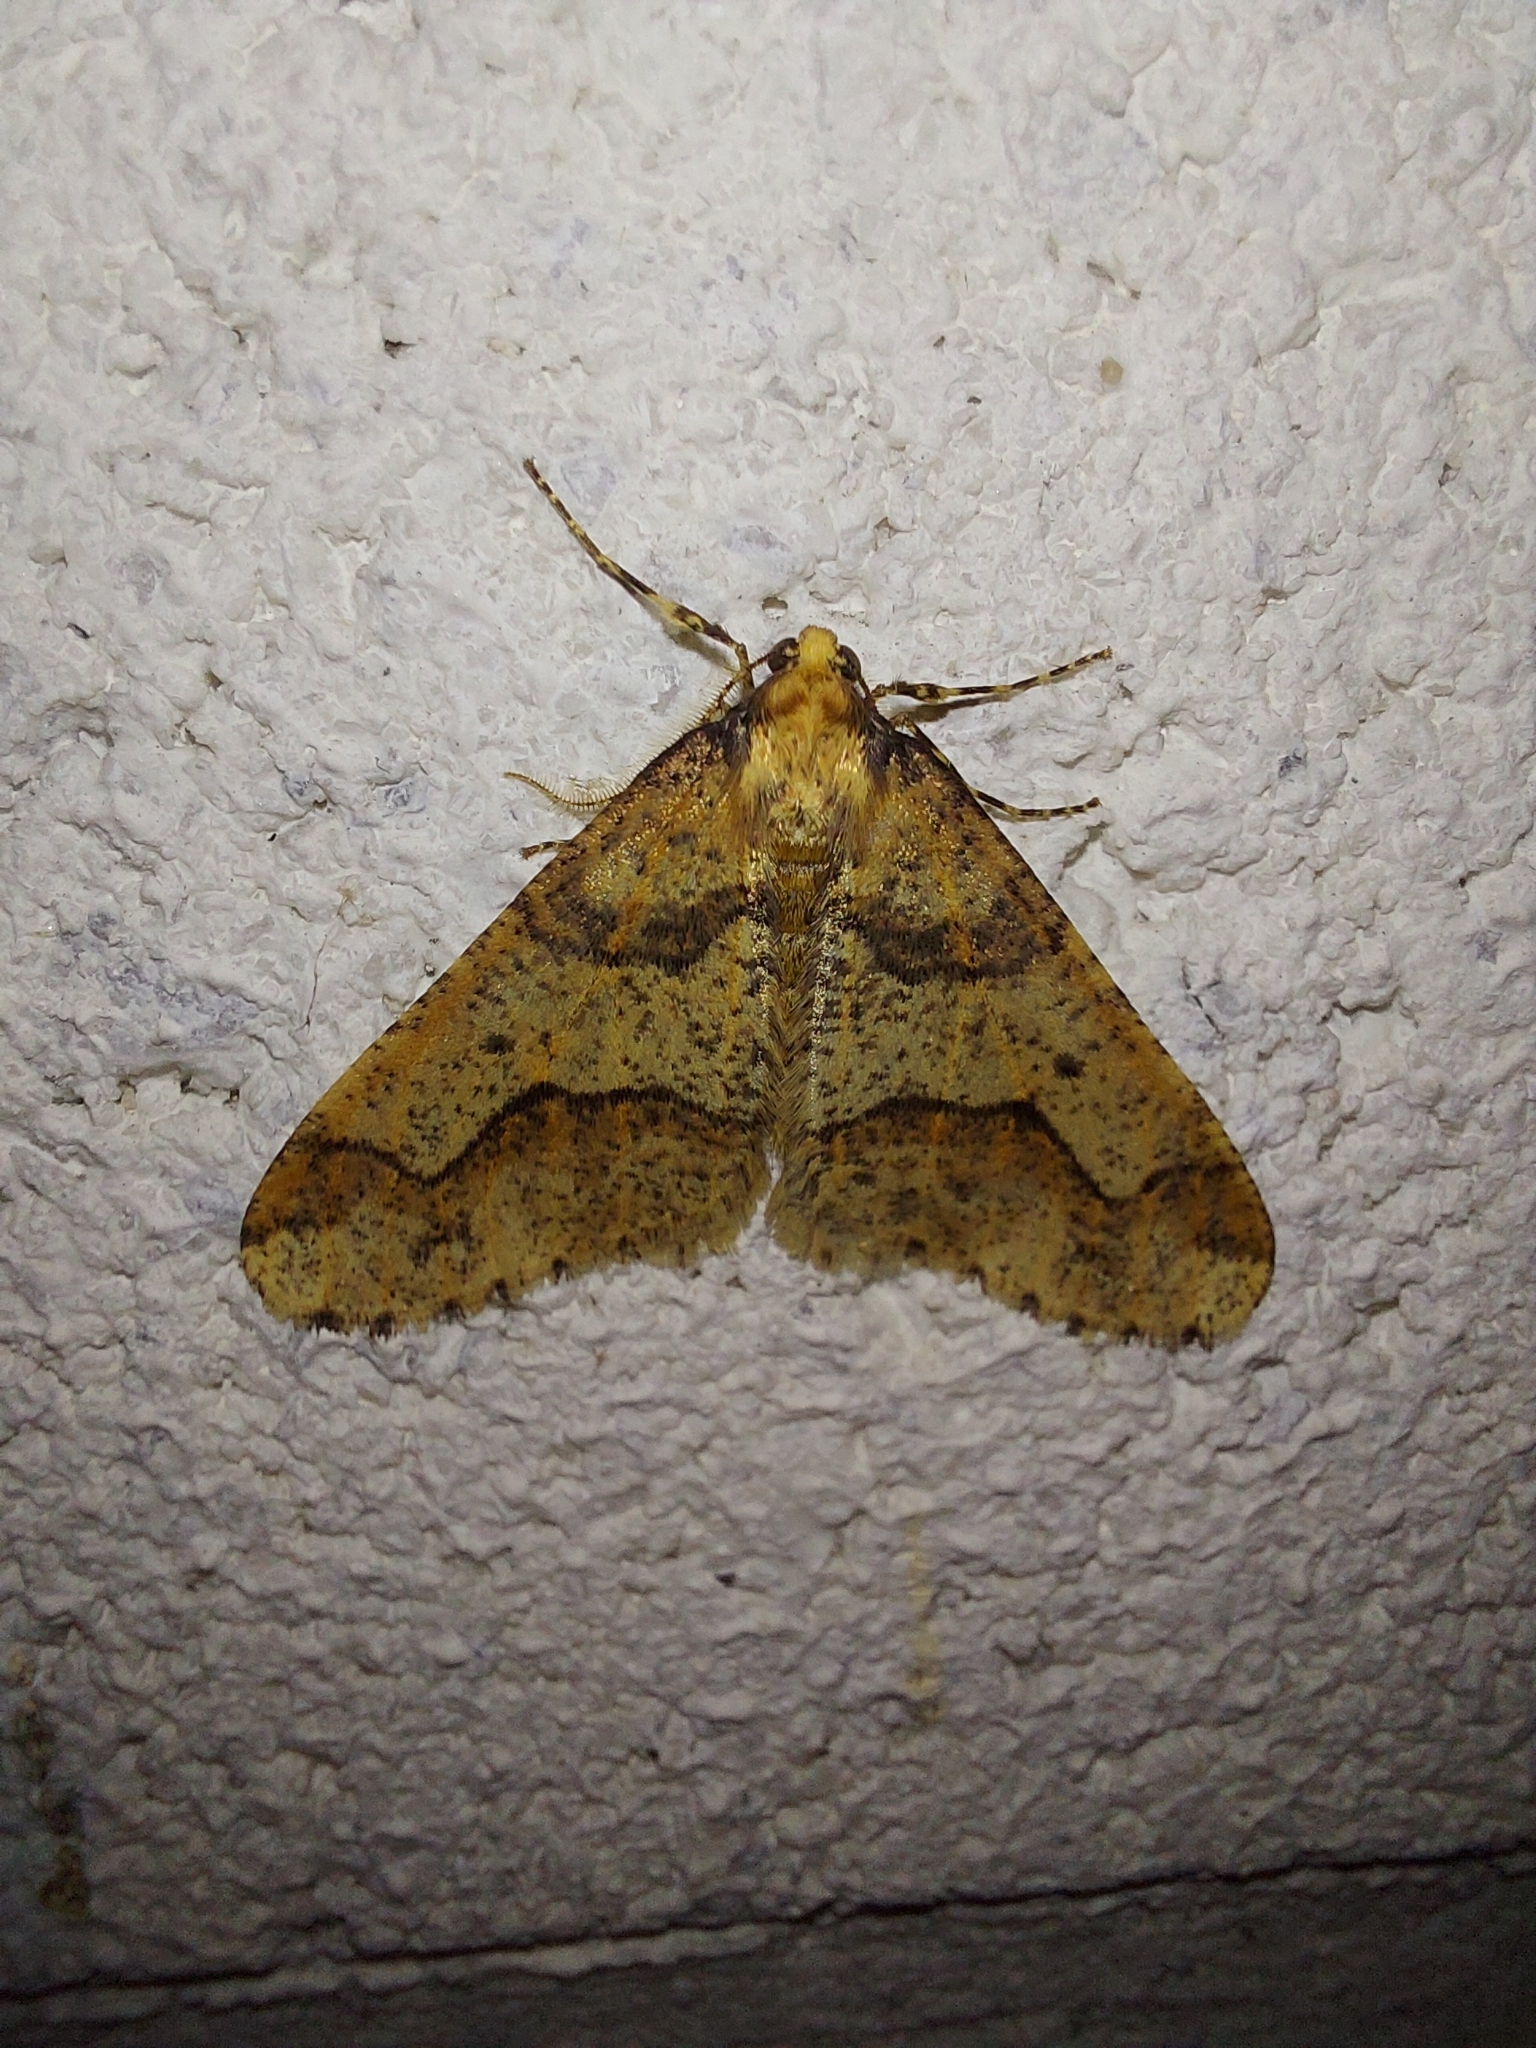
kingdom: Animalia
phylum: Arthropoda
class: Insecta
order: Lepidoptera
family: Geometridae
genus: Erannis
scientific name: Erannis defoliaria
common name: Mottled umber
